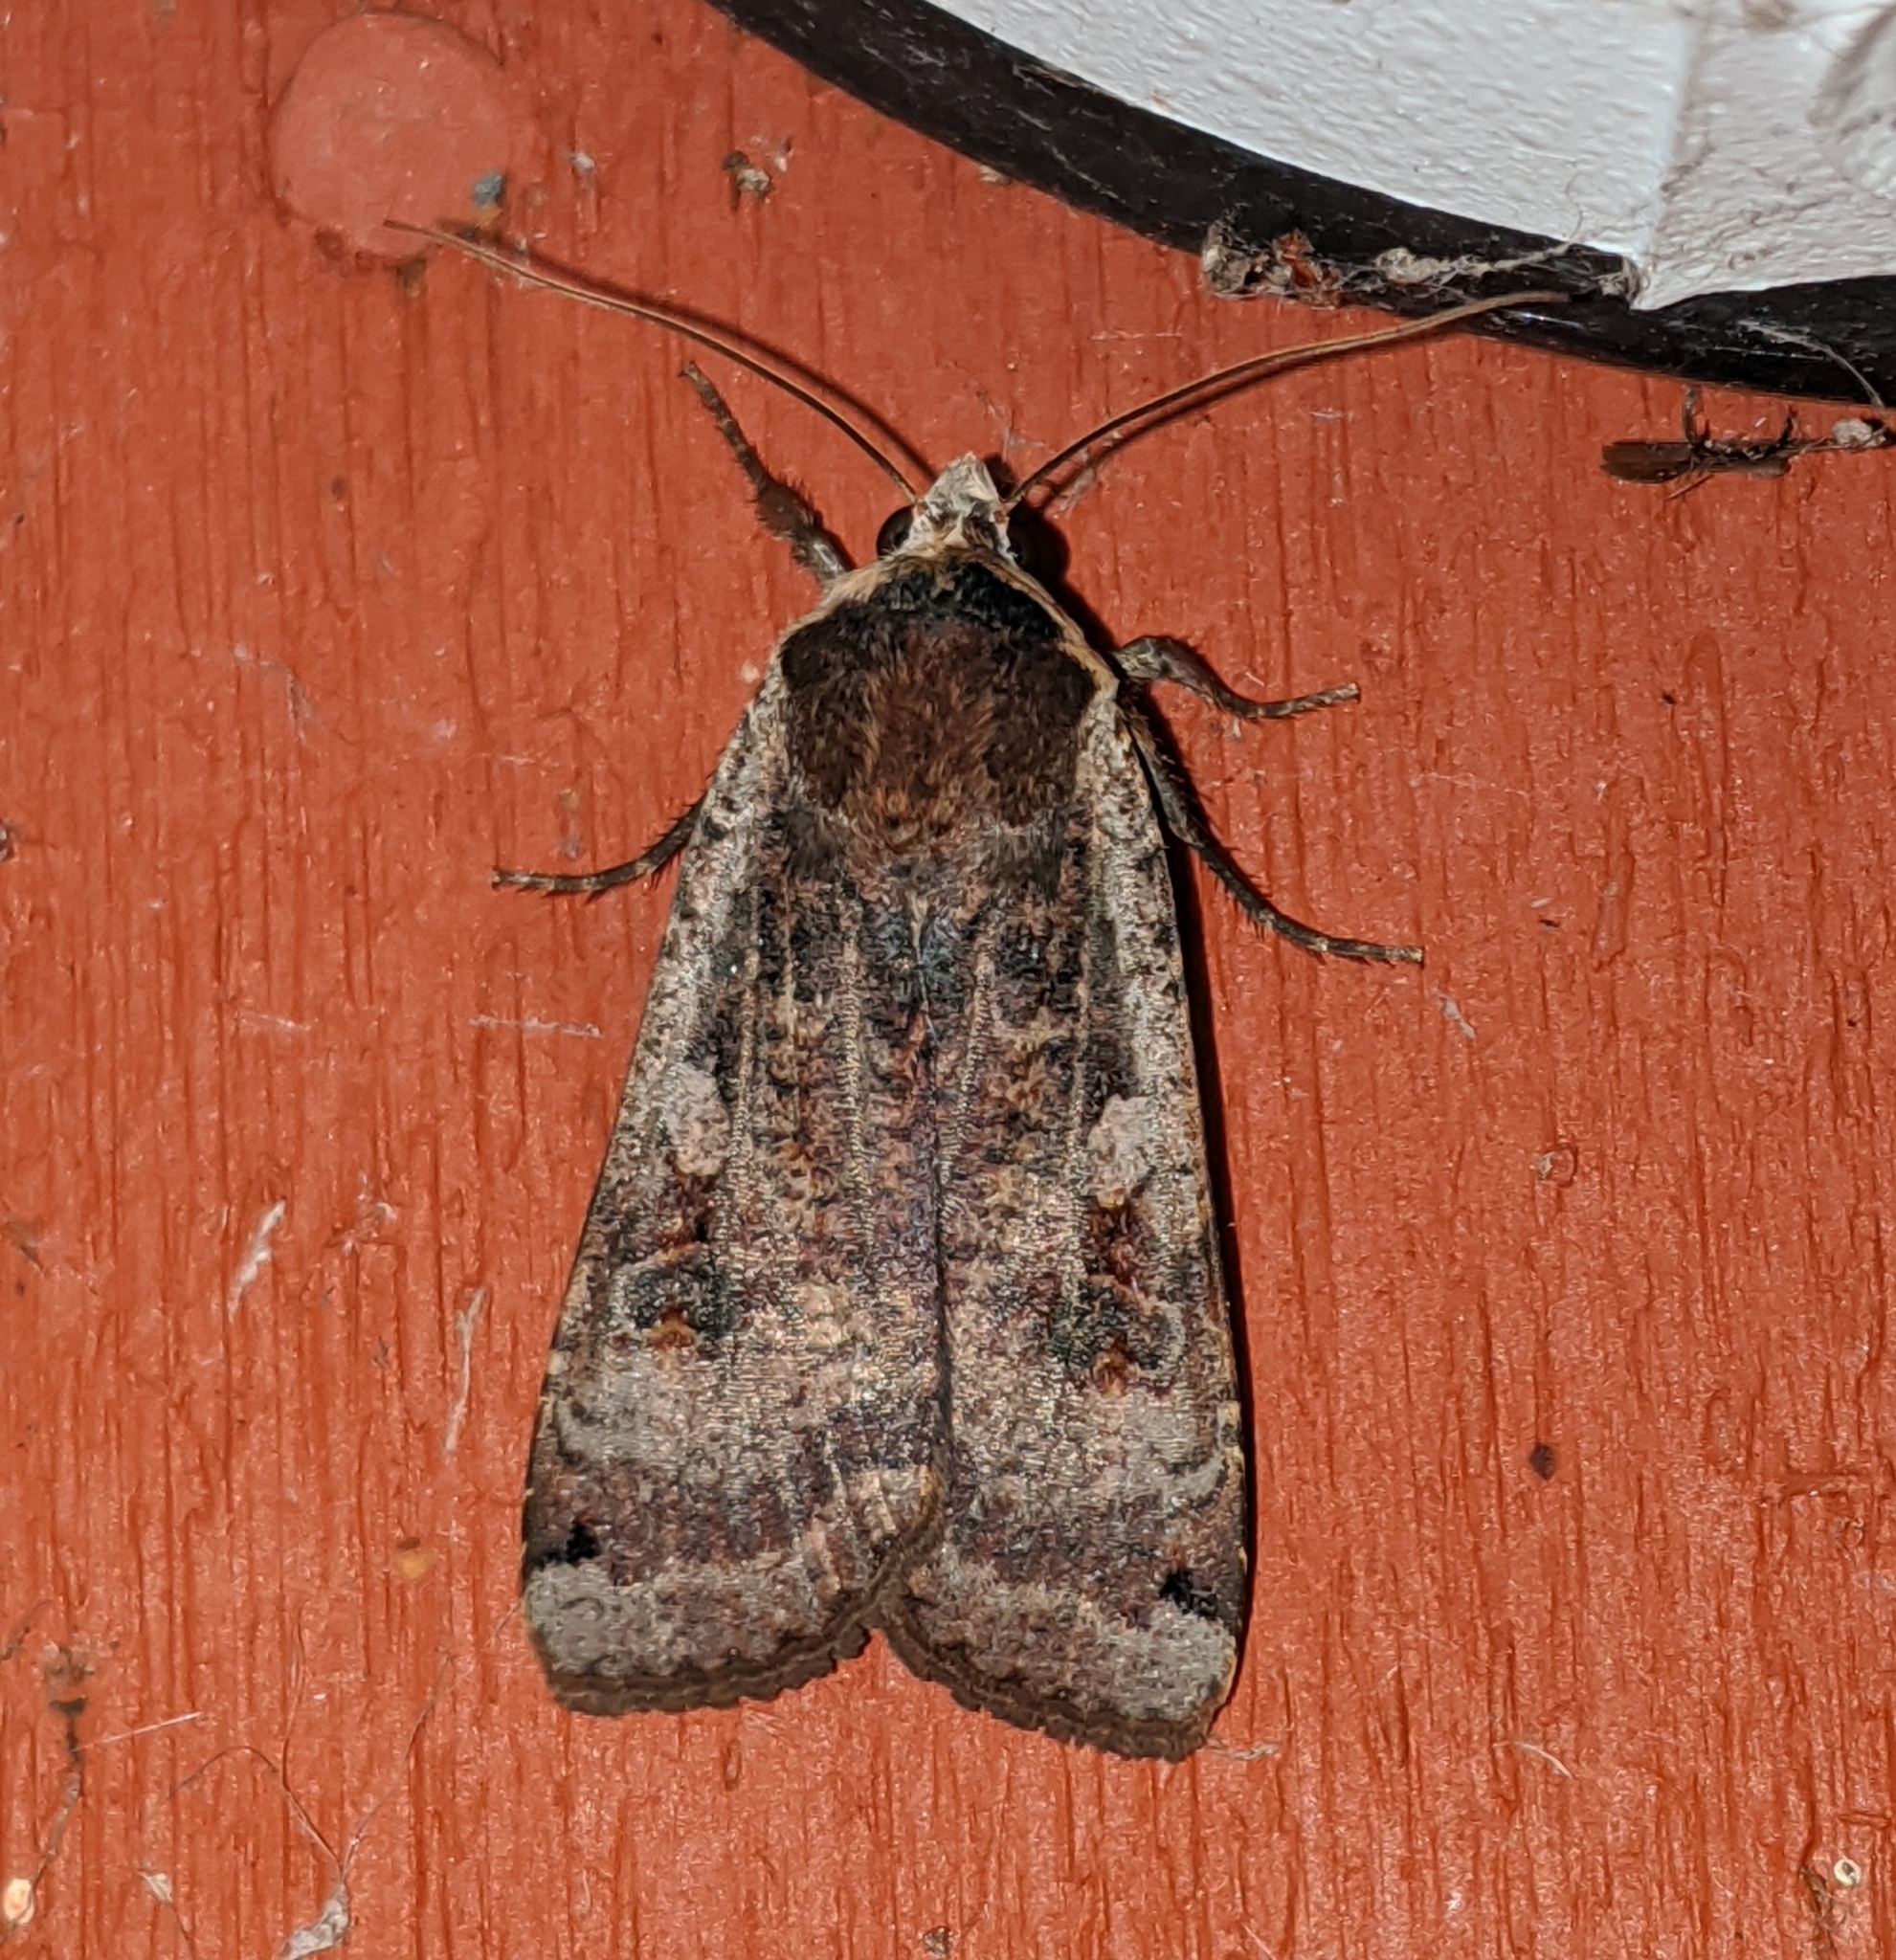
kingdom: Animalia
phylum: Arthropoda
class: Insecta
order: Lepidoptera
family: Noctuidae
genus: Noctua
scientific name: Noctua pronuba
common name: Large yellow underwing
